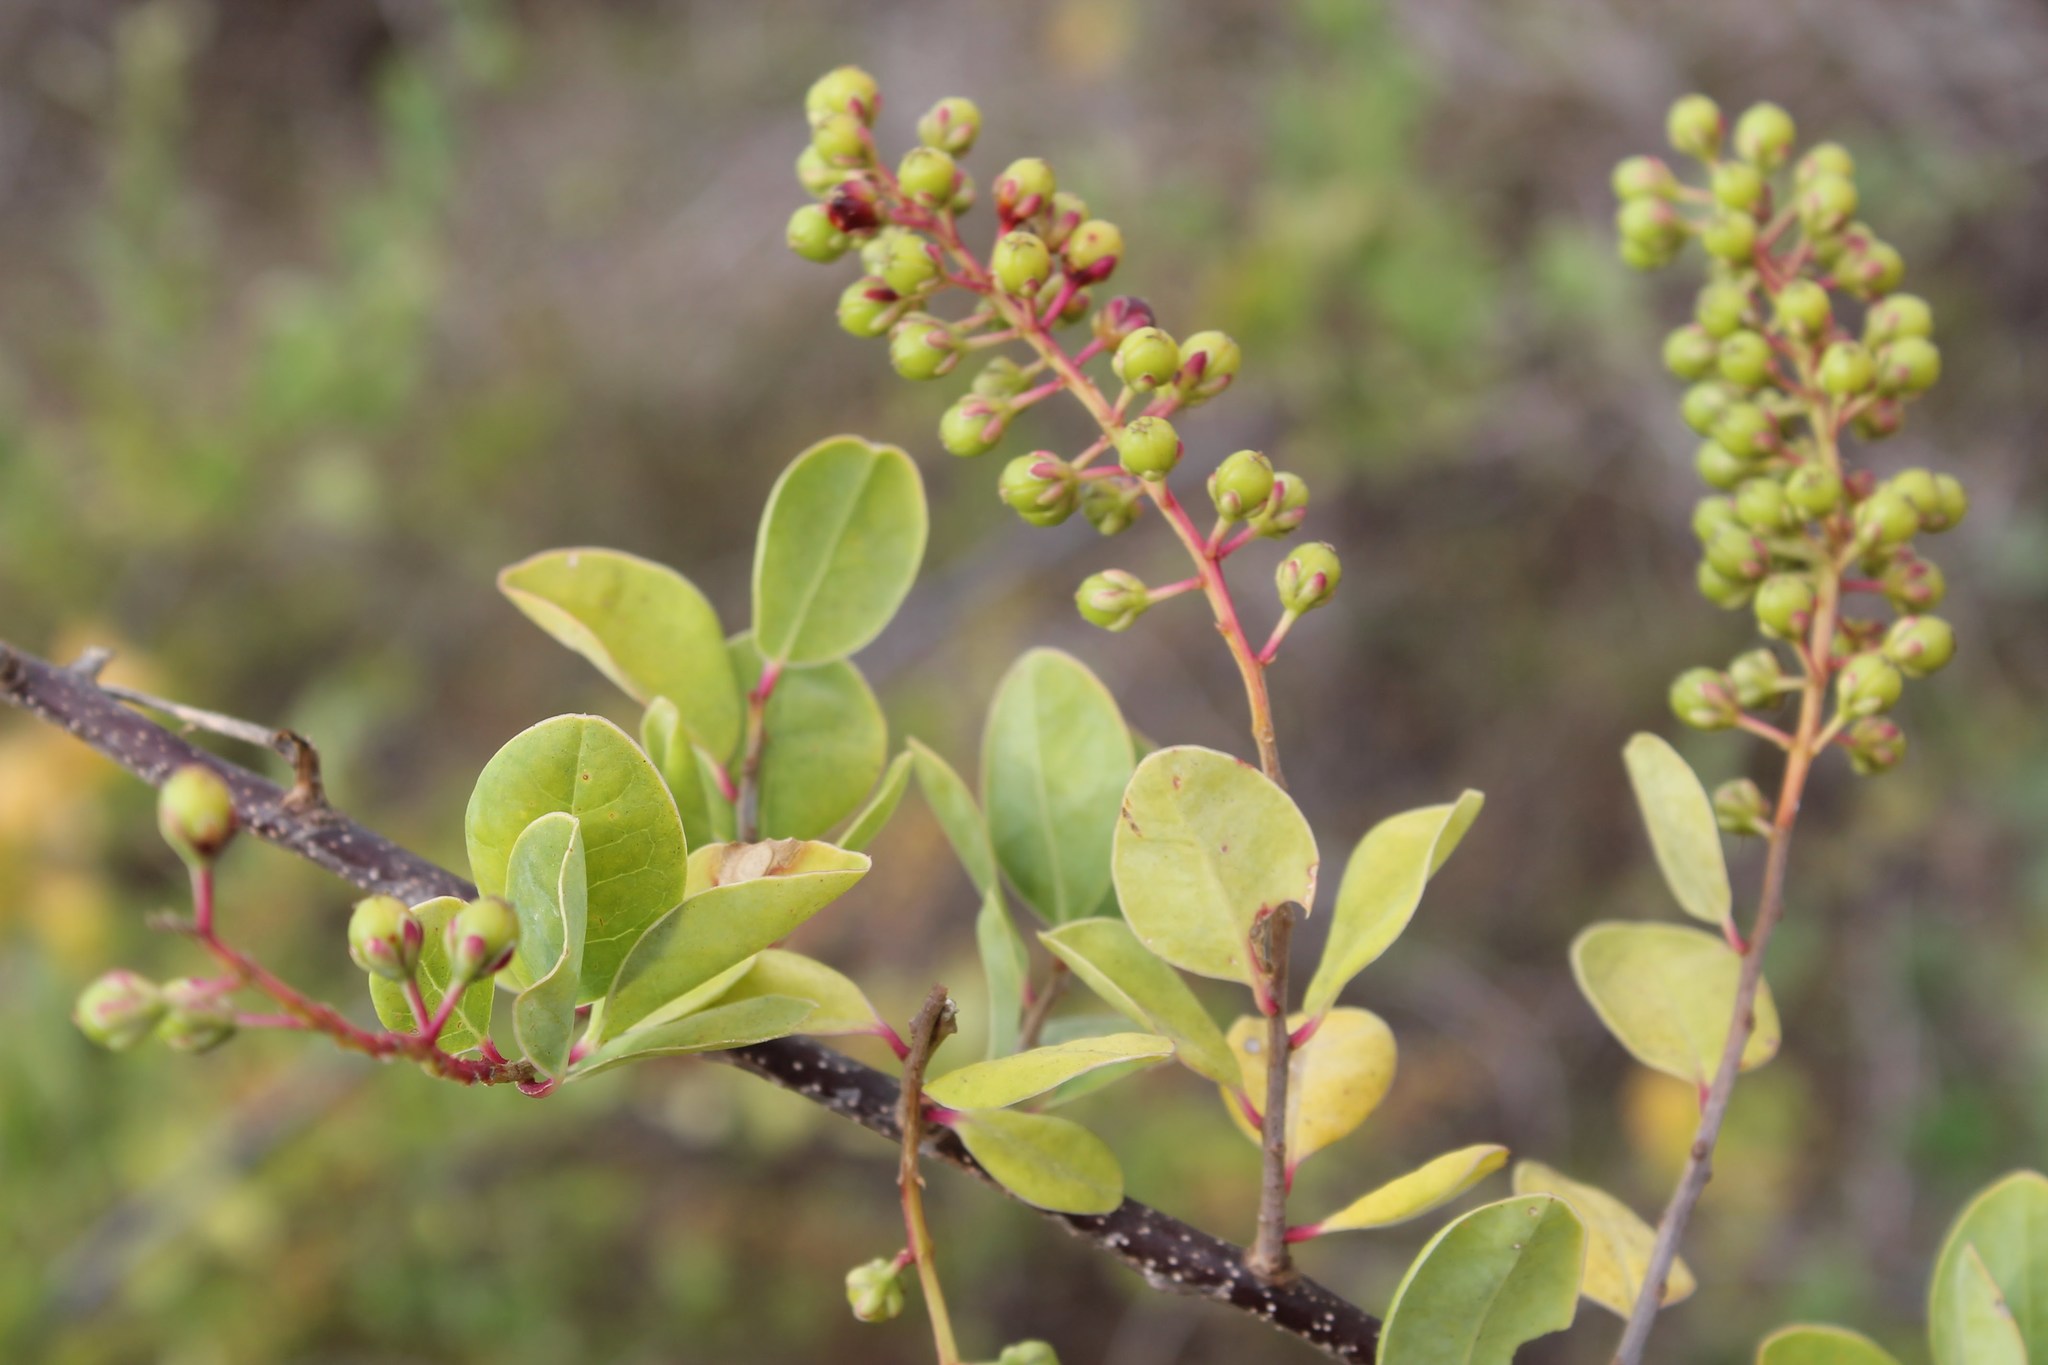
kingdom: Plantae
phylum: Tracheophyta
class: Magnoliopsida
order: Caryophyllales
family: Stegnospermataceae
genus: Stegnosperma
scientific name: Stegnosperma cubense
